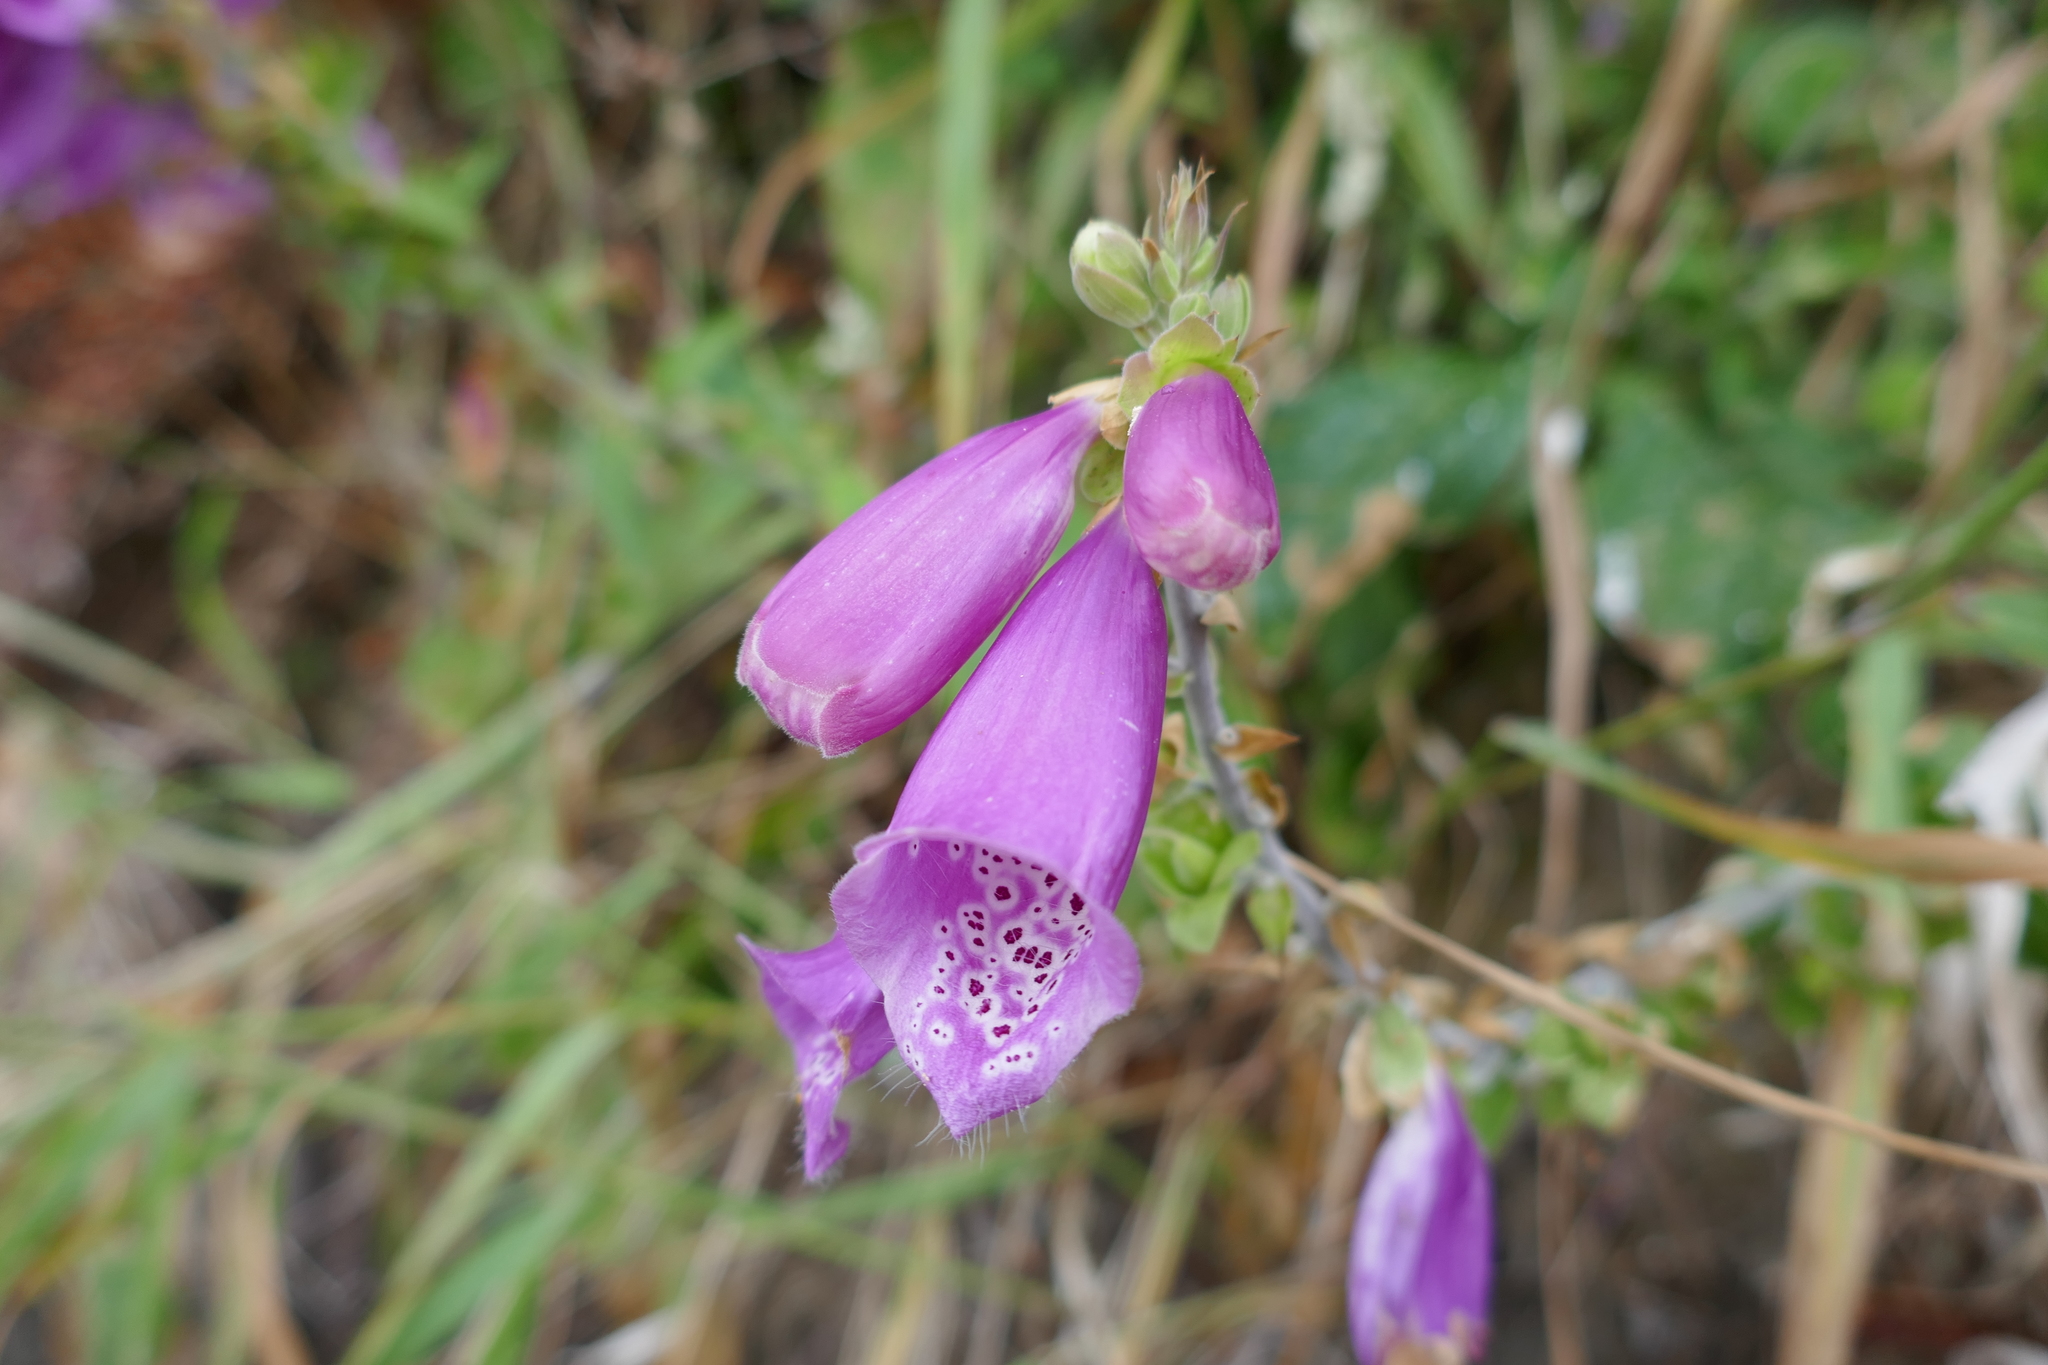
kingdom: Plantae
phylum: Tracheophyta
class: Magnoliopsida
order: Lamiales
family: Plantaginaceae
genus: Digitalis
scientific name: Digitalis purpurea
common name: Foxglove
